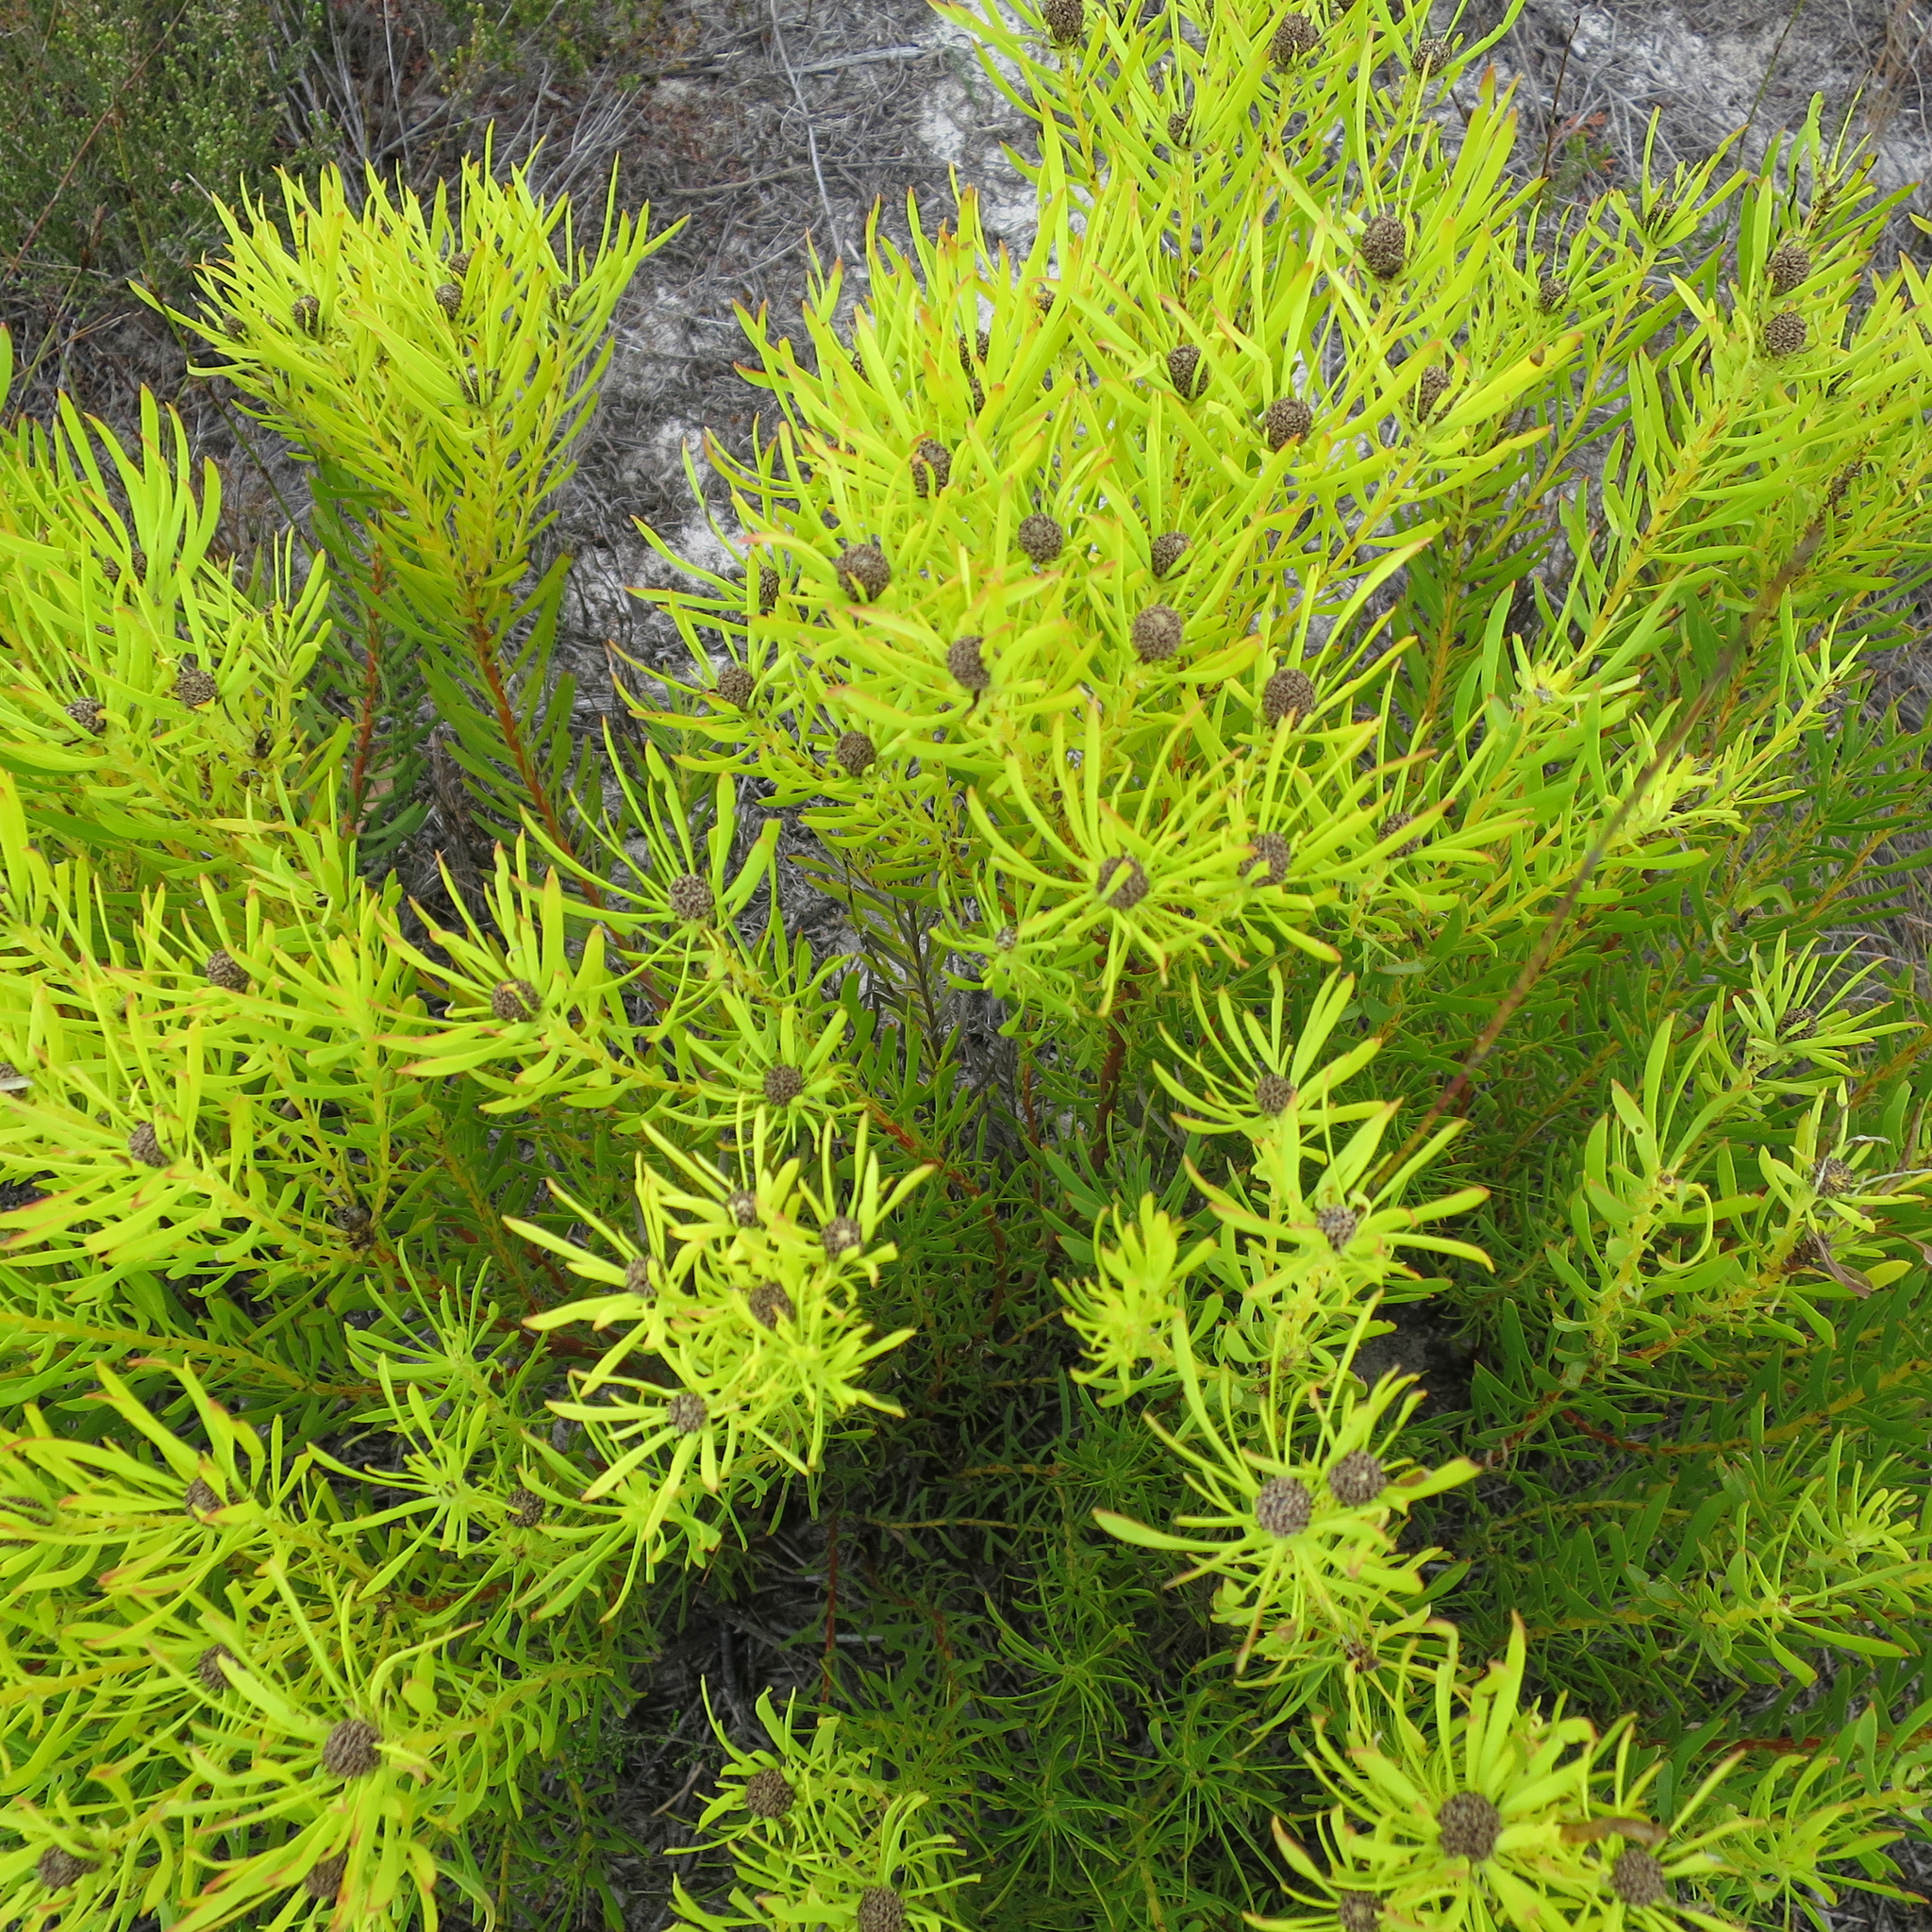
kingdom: Plantae
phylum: Tracheophyta
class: Magnoliopsida
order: Proteales
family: Proteaceae
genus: Leucadendron
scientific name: Leucadendron salignum
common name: Common sunshine conebush
